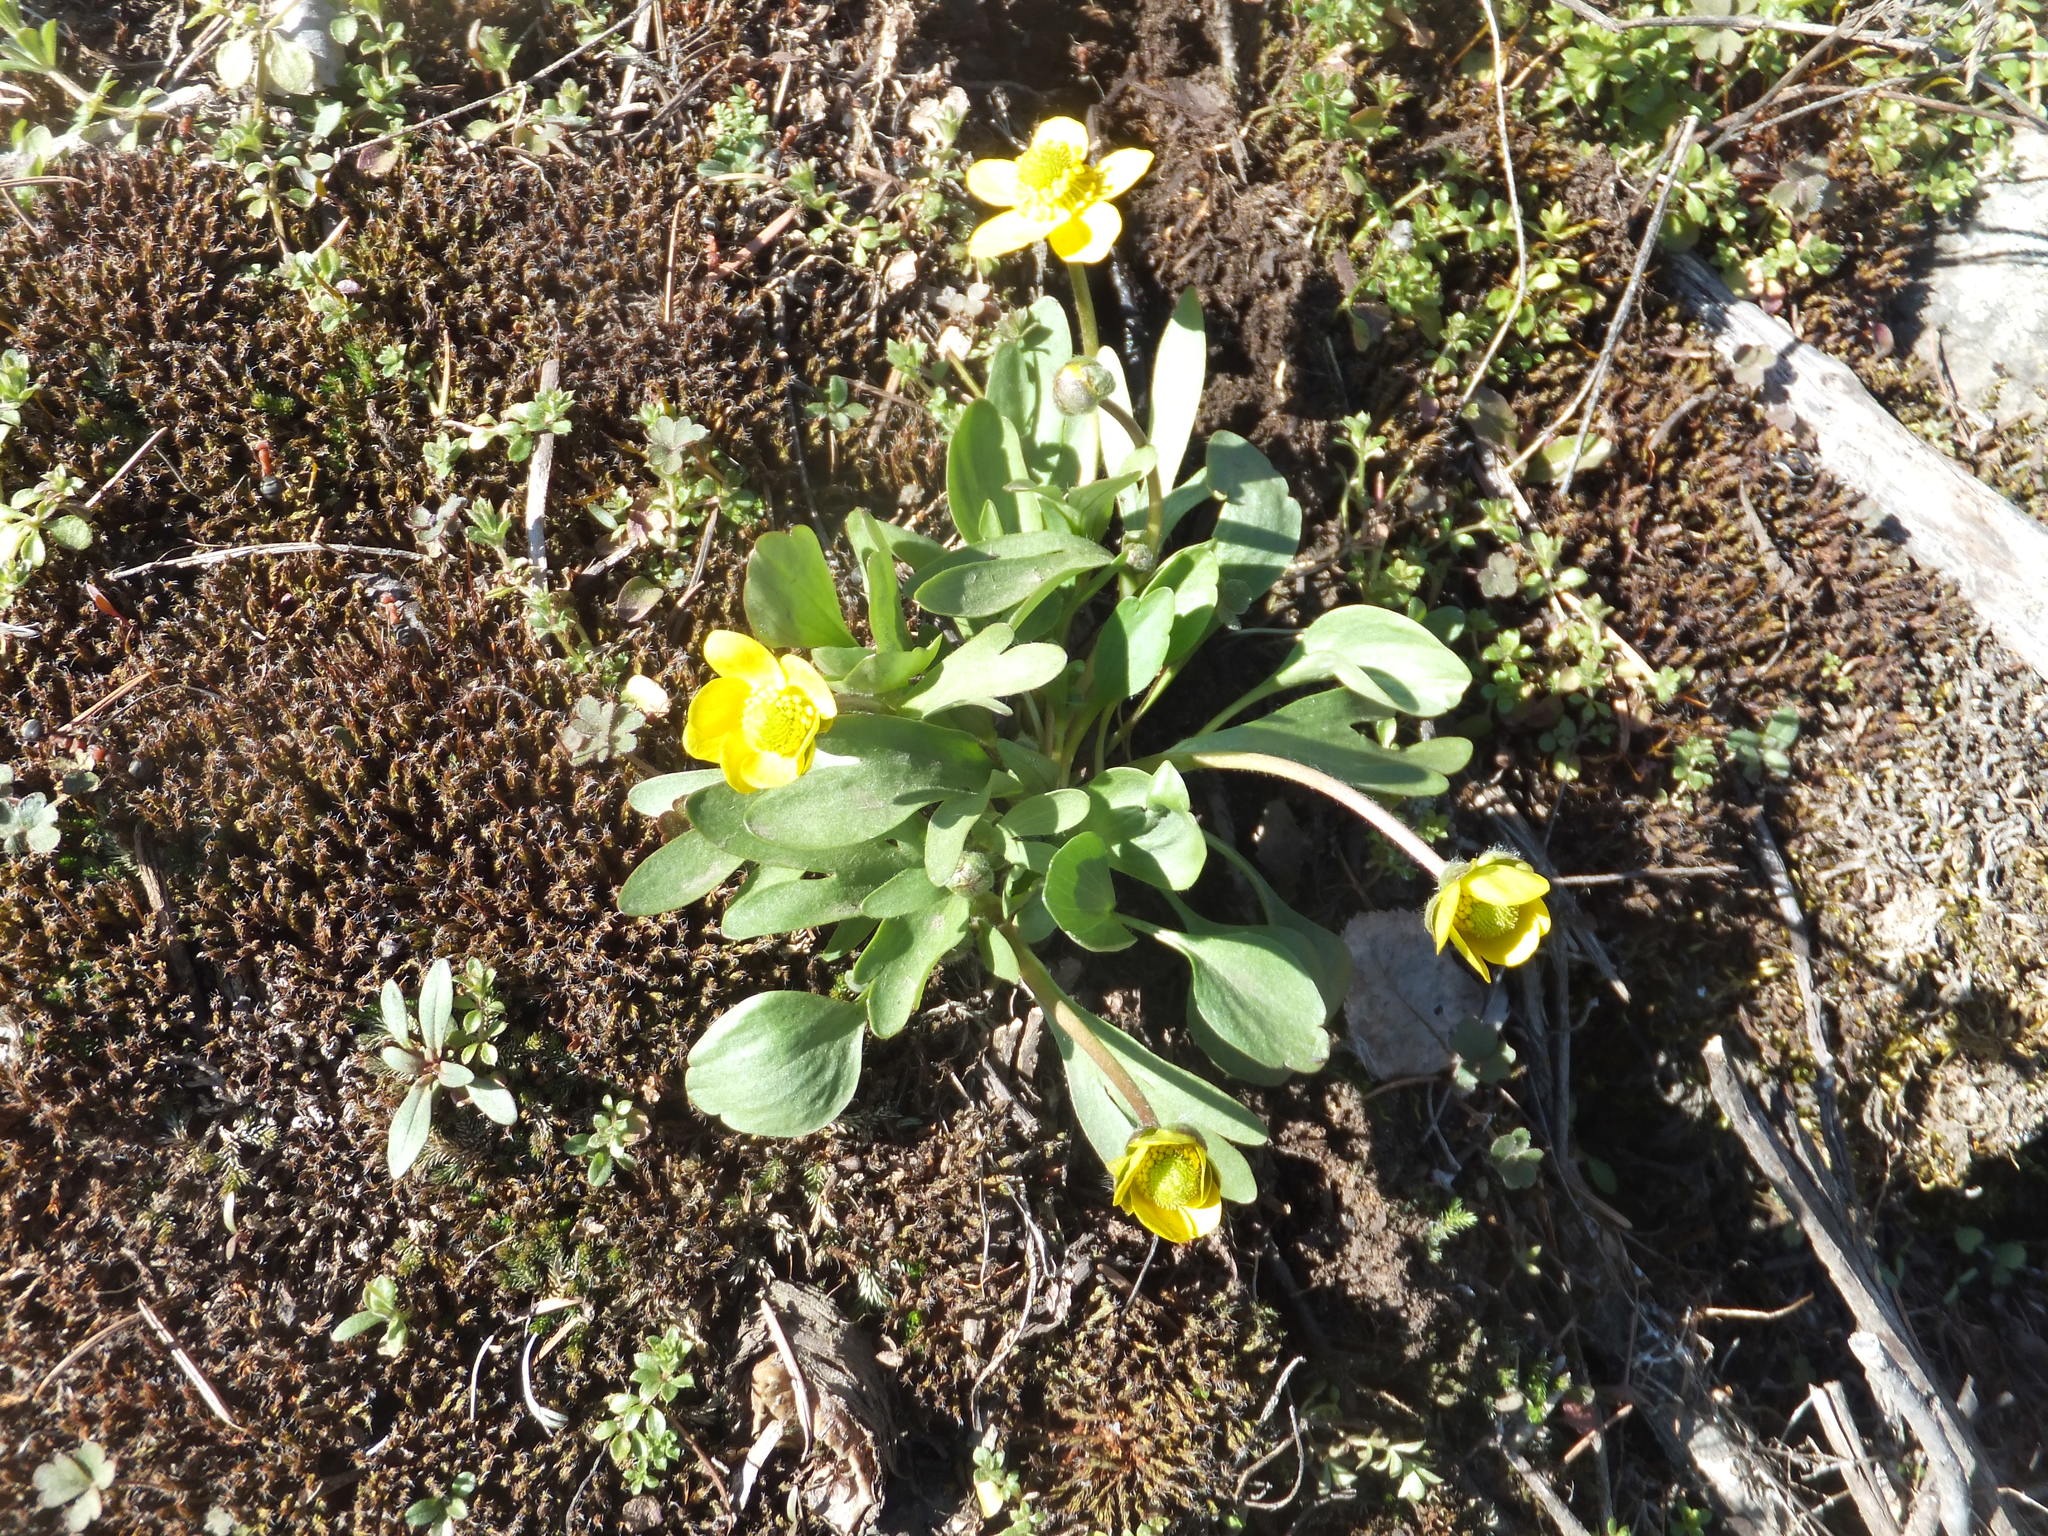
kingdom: Plantae
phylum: Tracheophyta
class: Magnoliopsida
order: Ranunculales
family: Ranunculaceae
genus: Ranunculus
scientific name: Ranunculus glaberrimus
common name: Sagebrush buttercup
